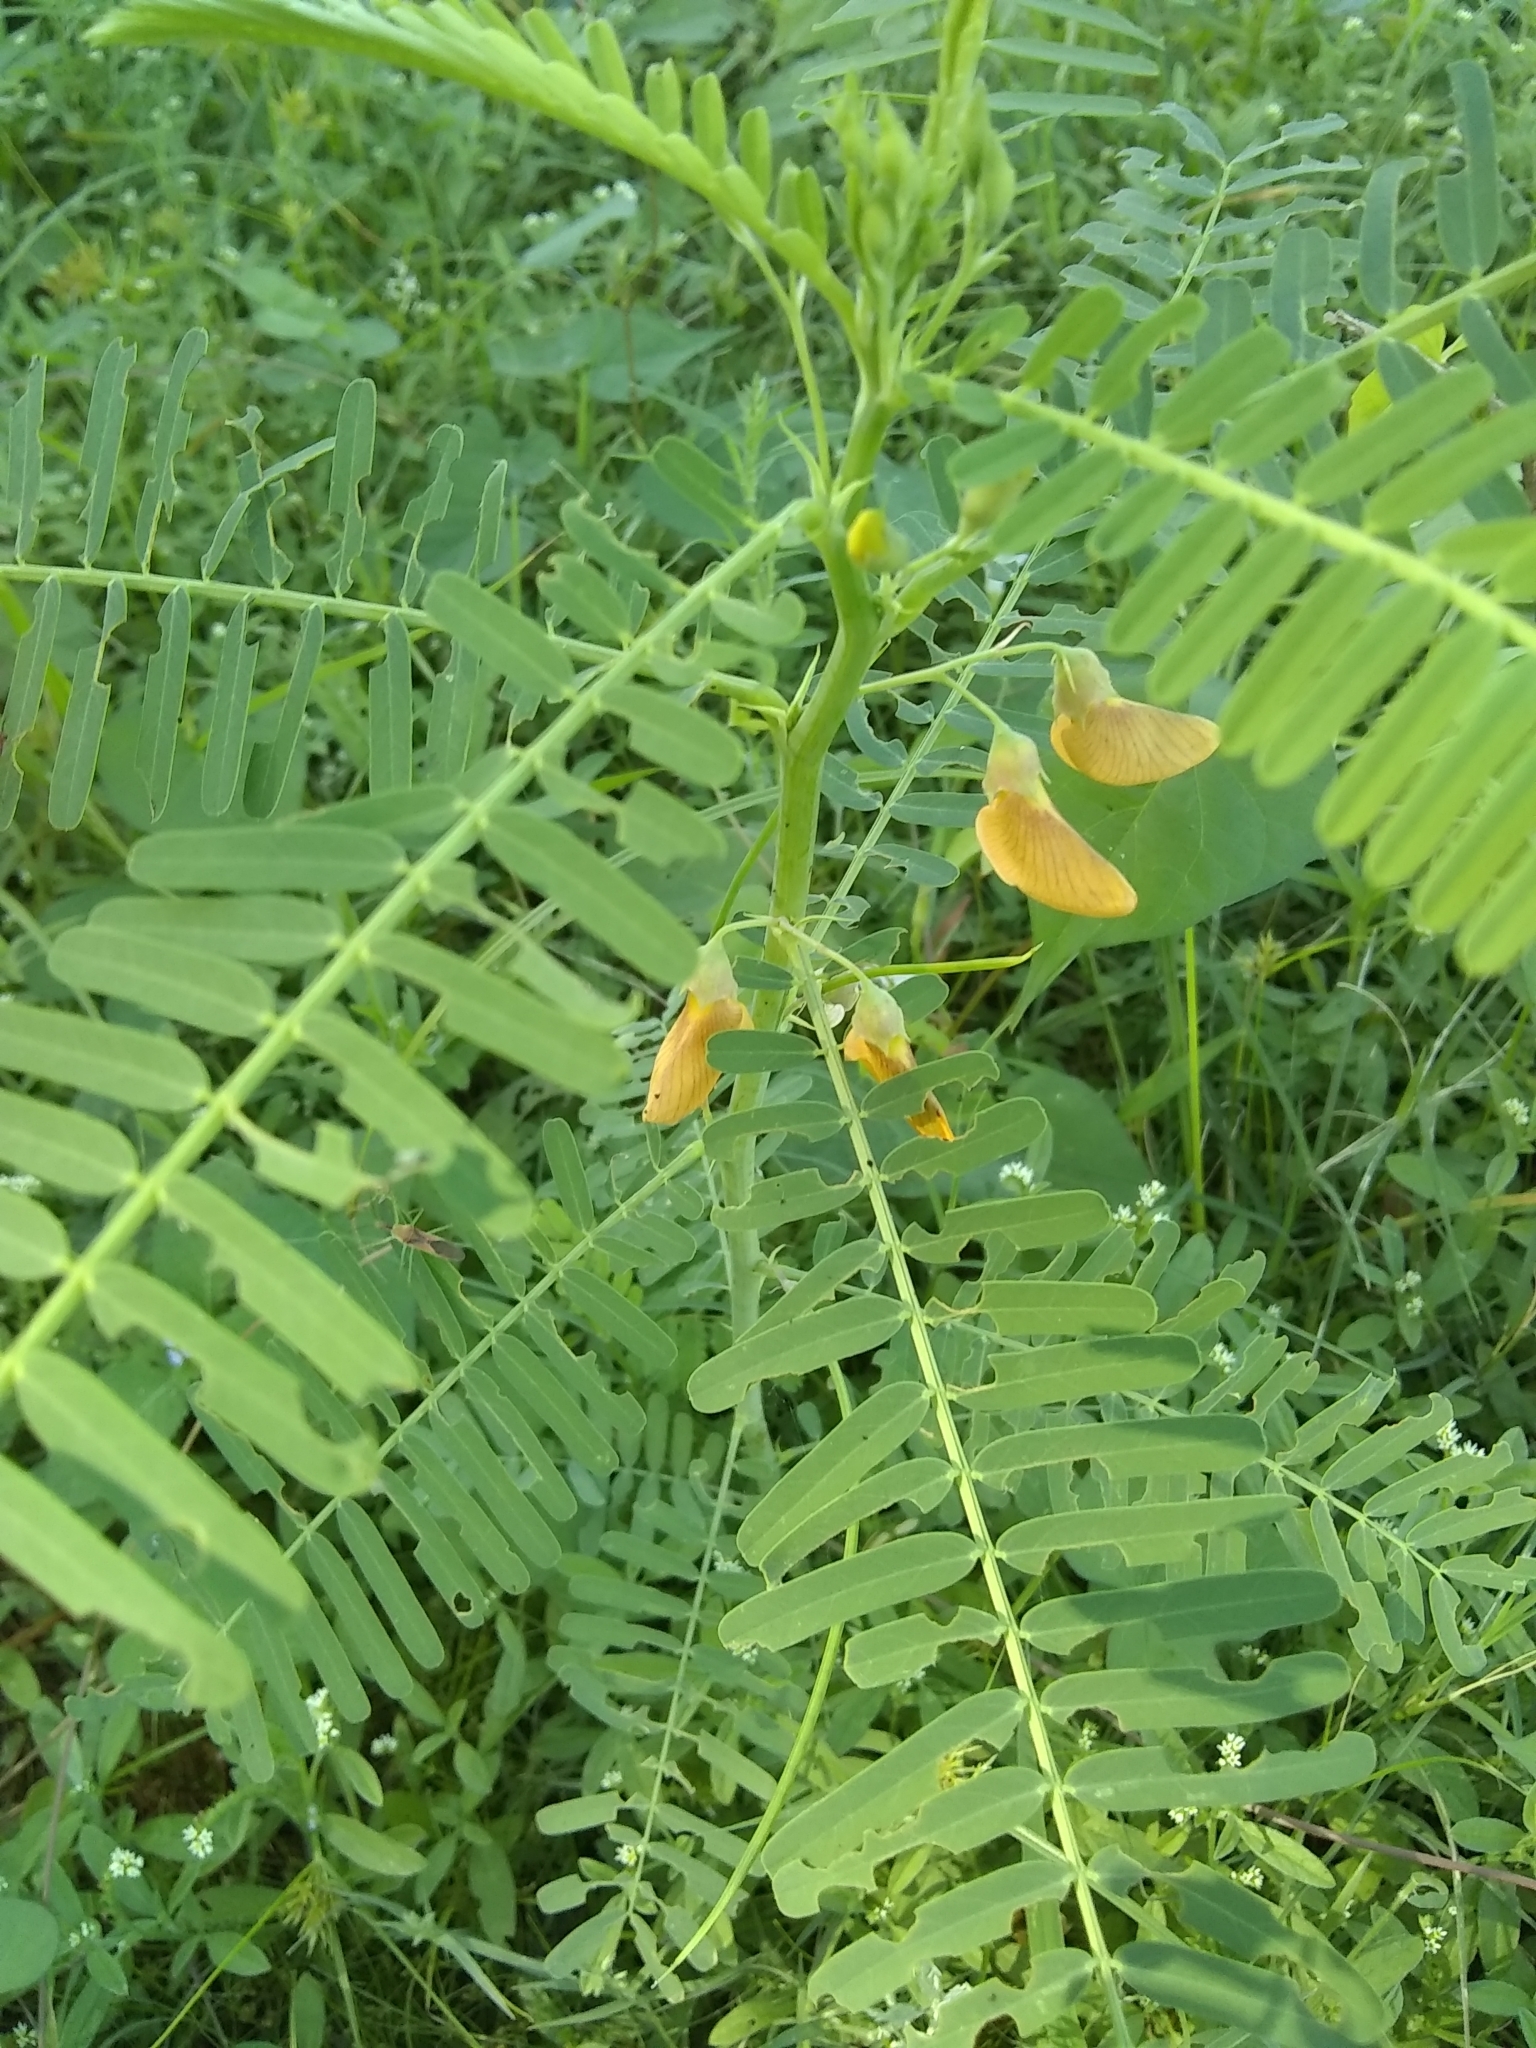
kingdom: Plantae
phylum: Tracheophyta
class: Magnoliopsida
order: Fabales
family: Fabaceae
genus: Sesbania
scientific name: Sesbania herbacea
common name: Bigpod sesbania
